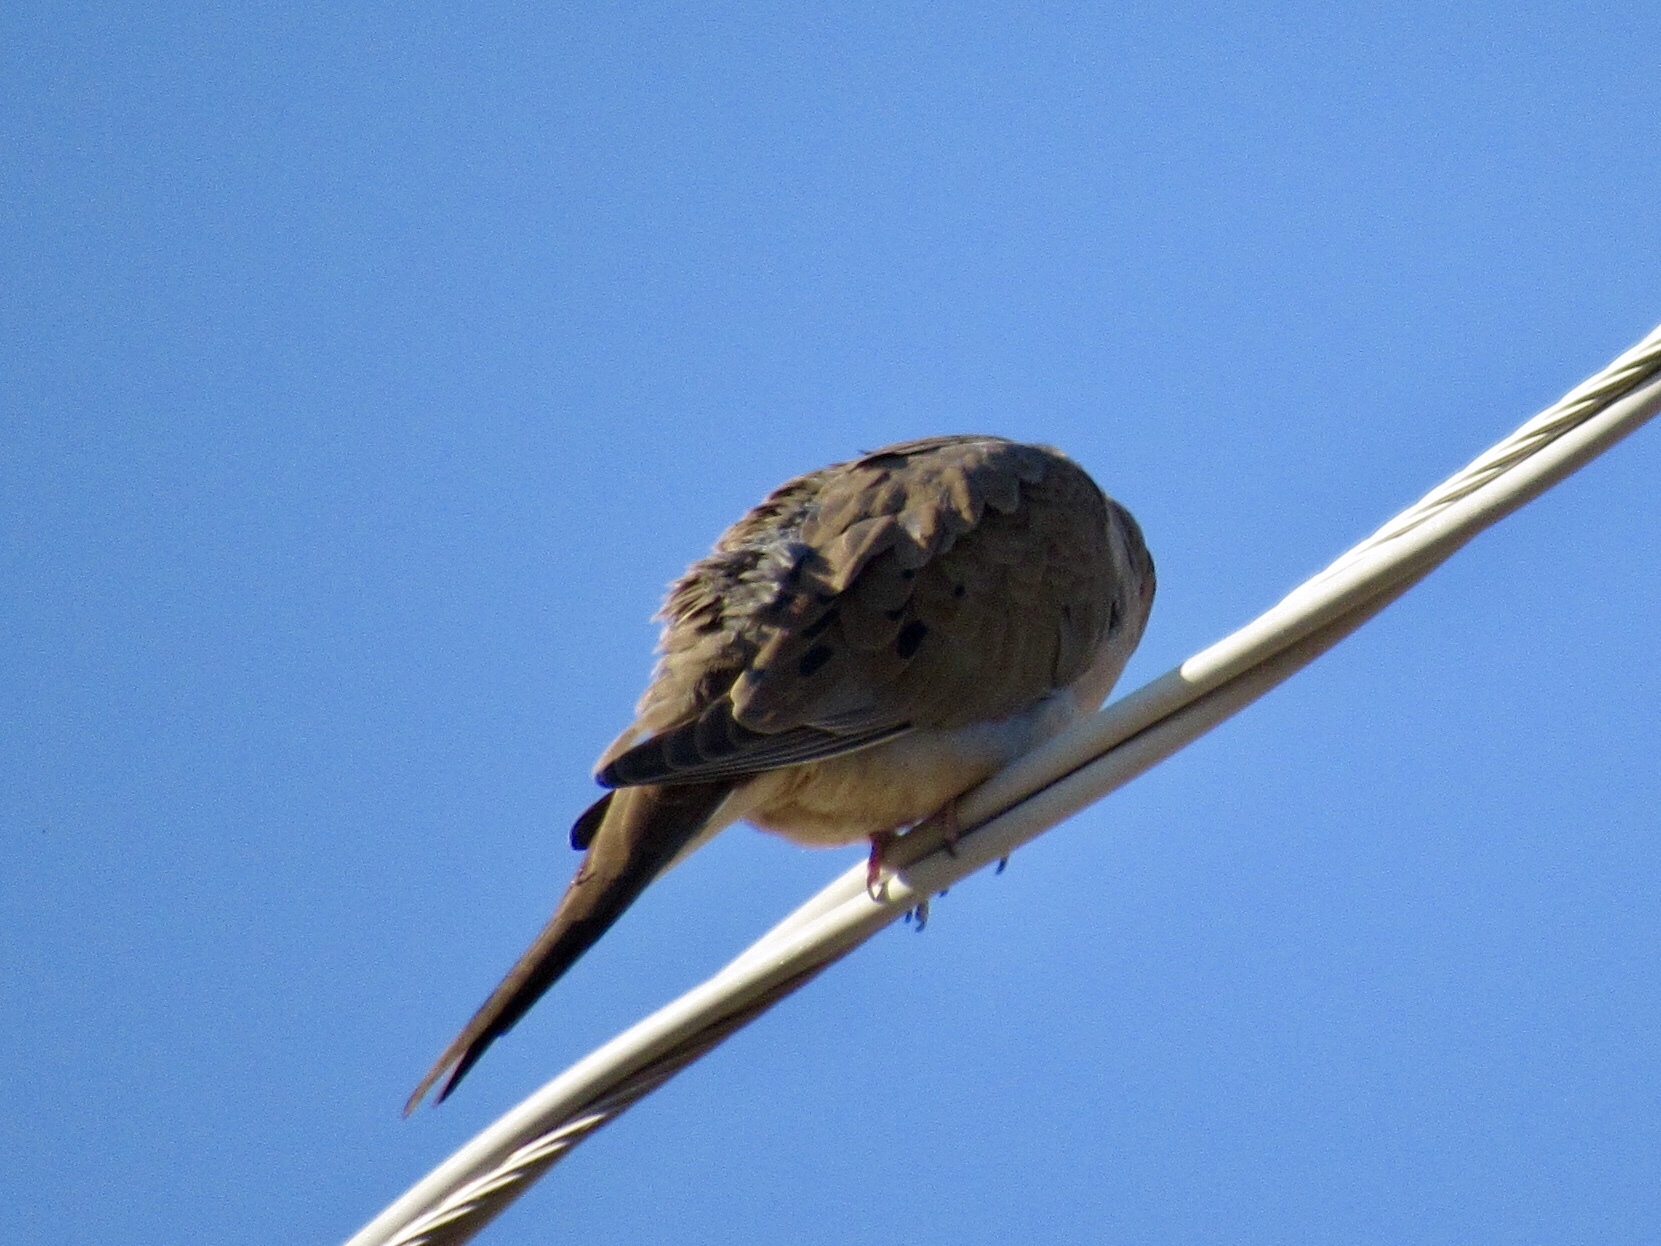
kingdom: Animalia
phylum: Chordata
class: Aves
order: Columbiformes
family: Columbidae
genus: Zenaida
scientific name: Zenaida macroura
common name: Mourning dove
